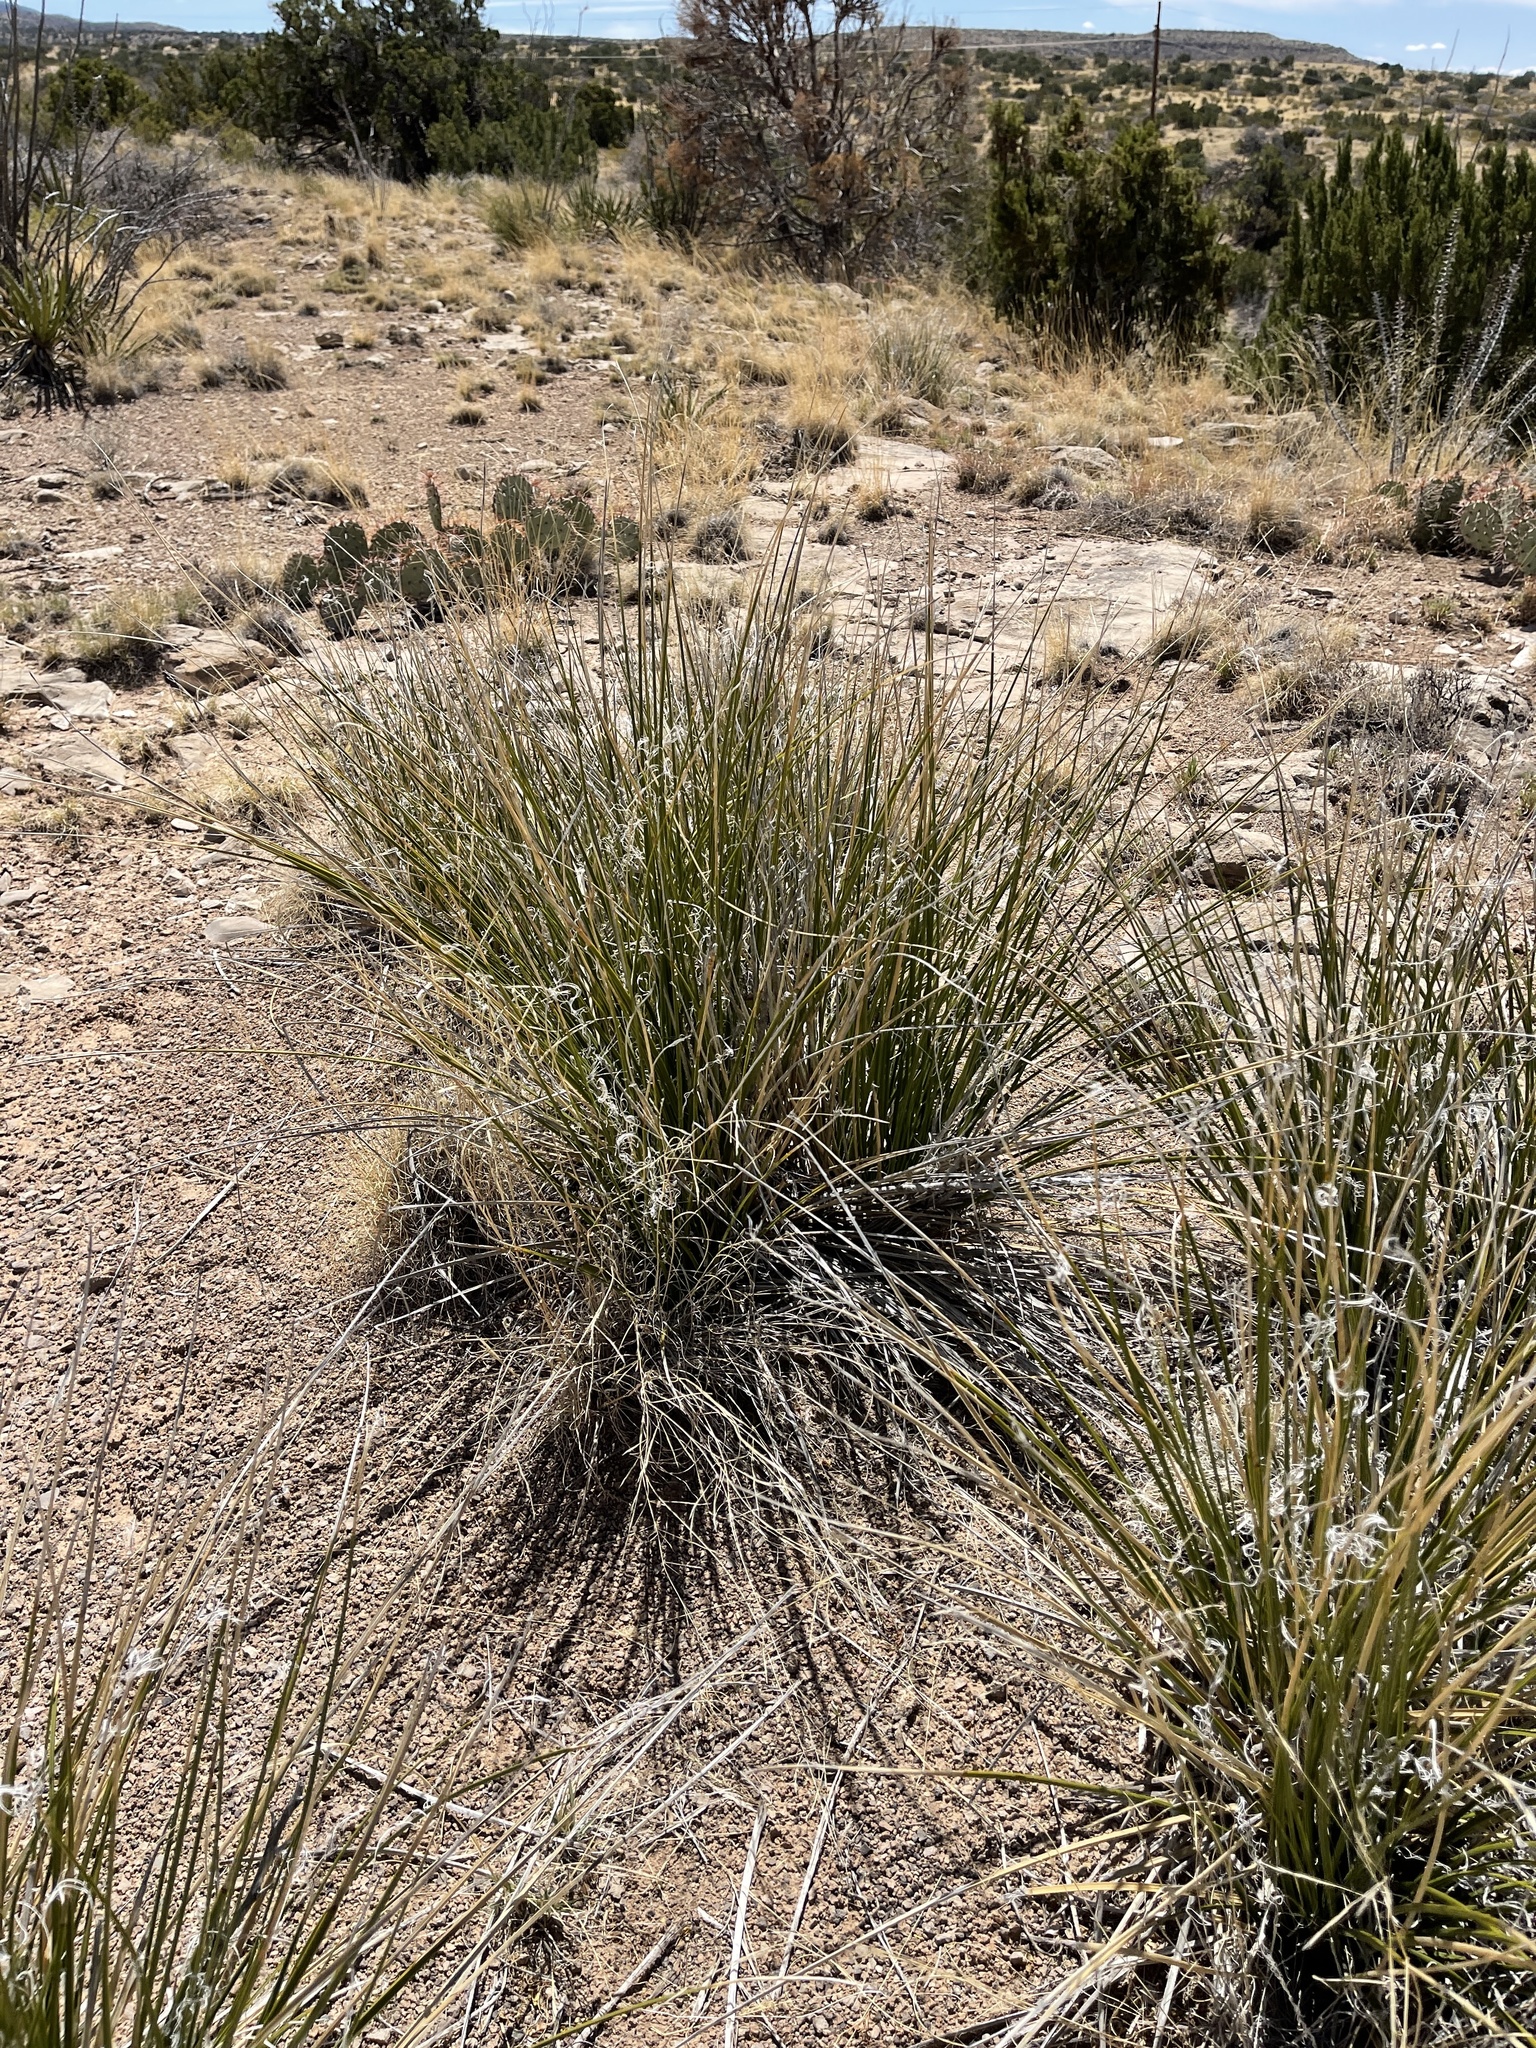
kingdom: Plantae
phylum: Tracheophyta
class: Liliopsida
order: Asparagales
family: Asparagaceae
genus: Nolina
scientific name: Nolina microcarpa
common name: Bear-grass
